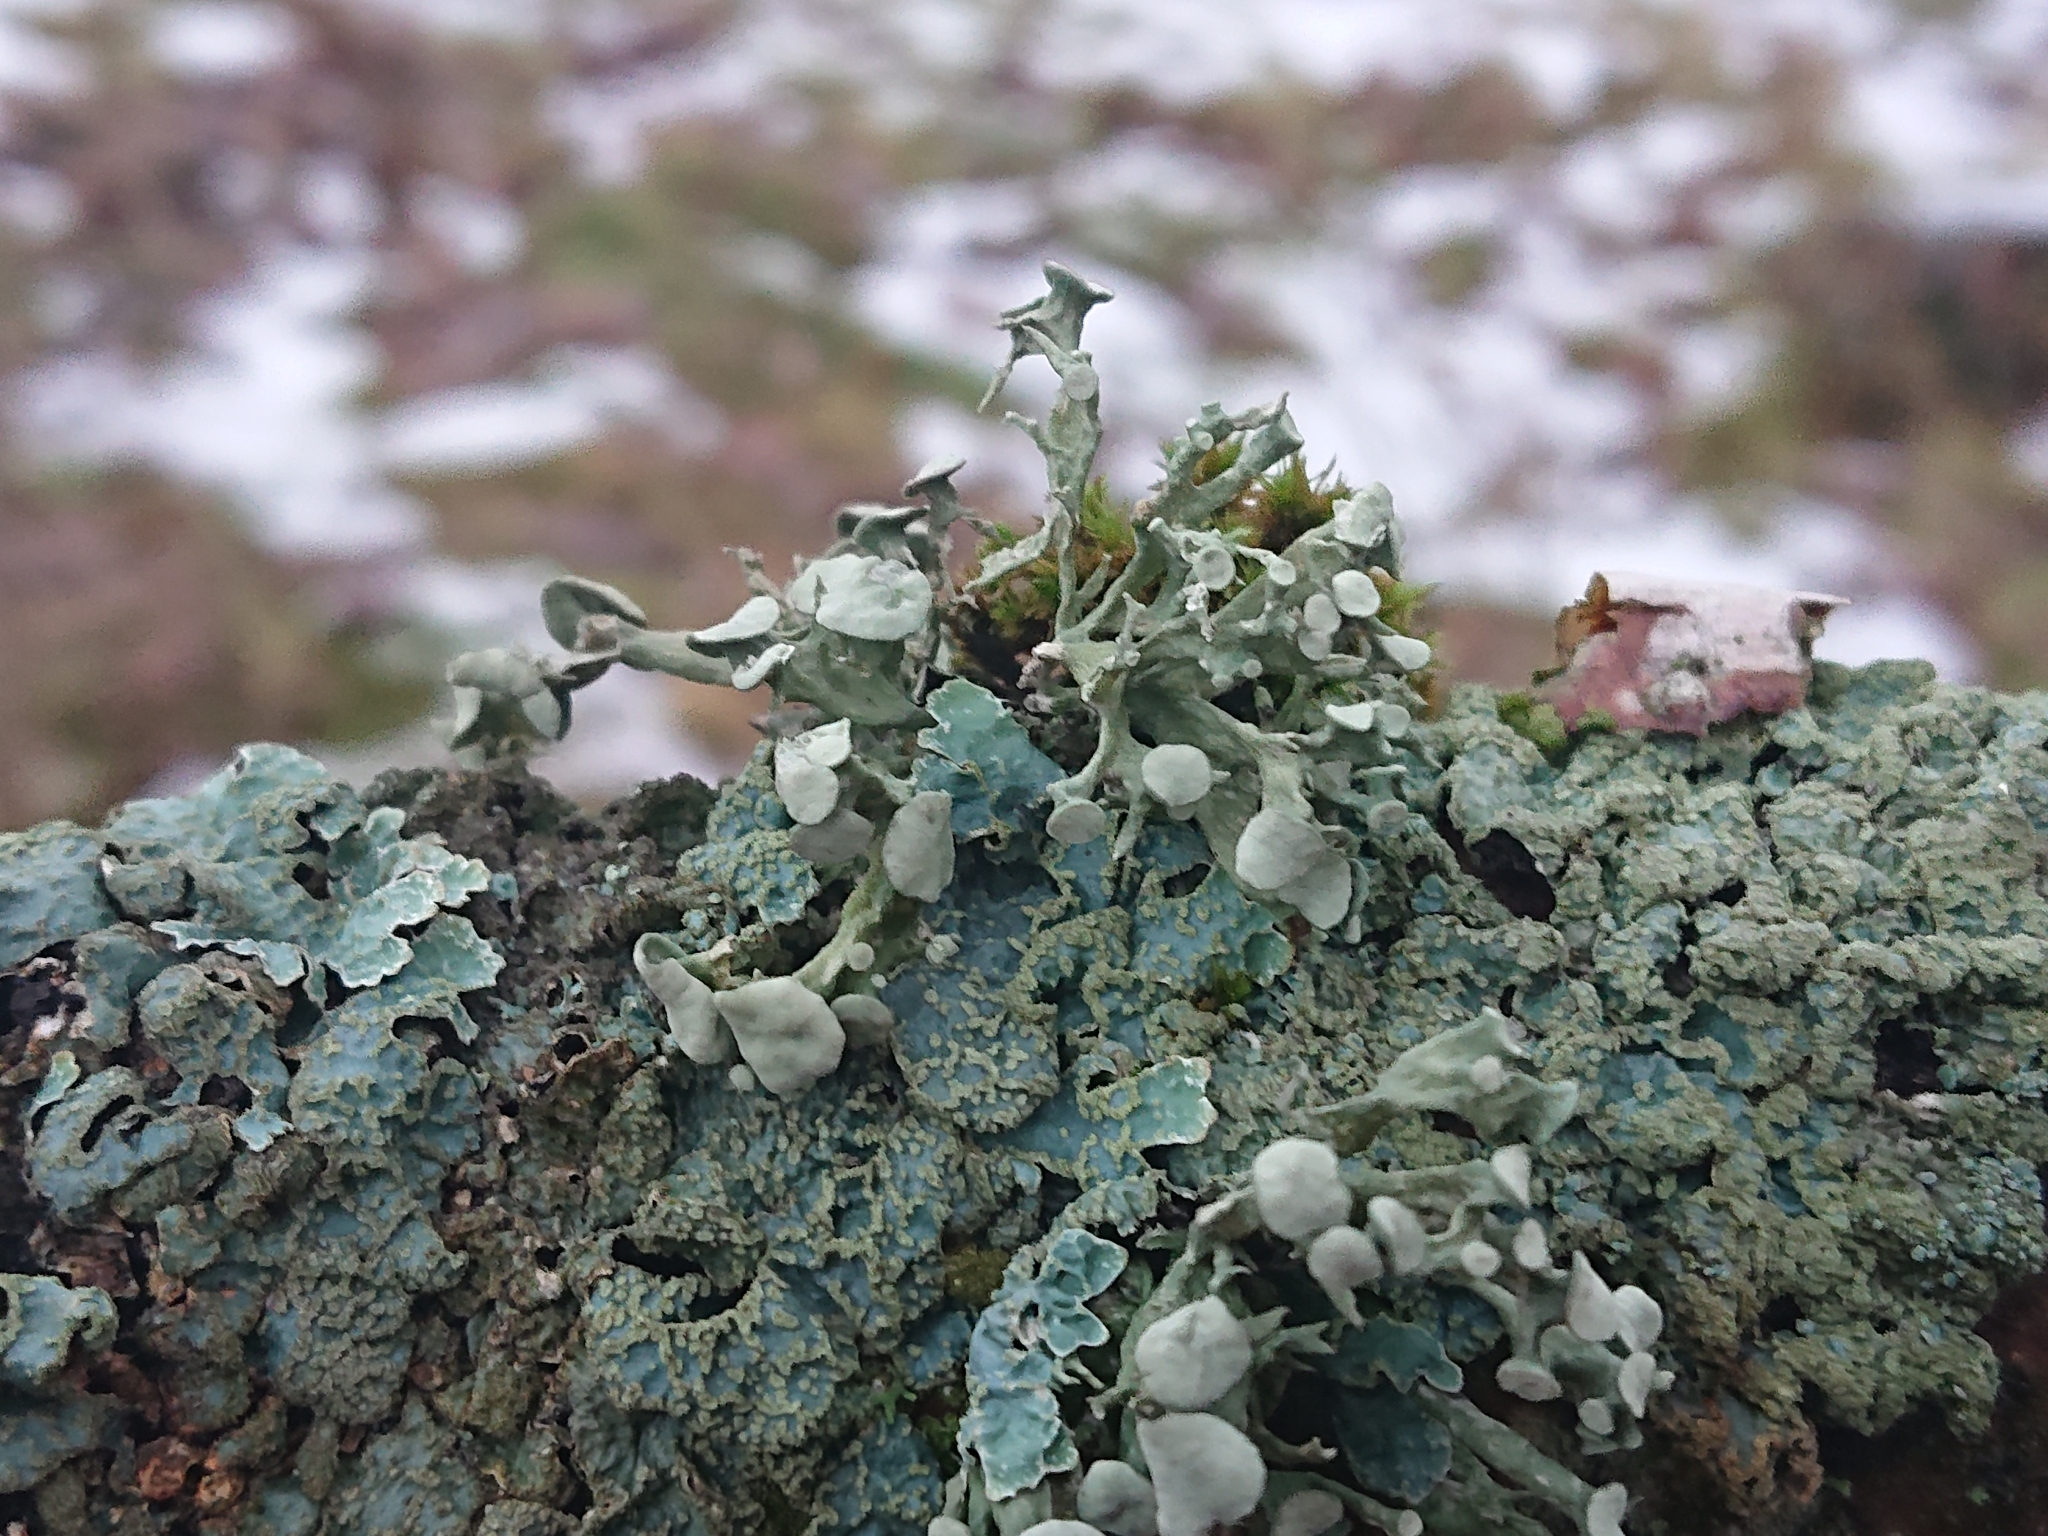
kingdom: Fungi
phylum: Ascomycota
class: Lecanoromycetes
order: Lecanorales
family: Ramalinaceae
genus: Ramalina
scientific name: Ramalina fastigiata
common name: Dotted ribbon lichen
